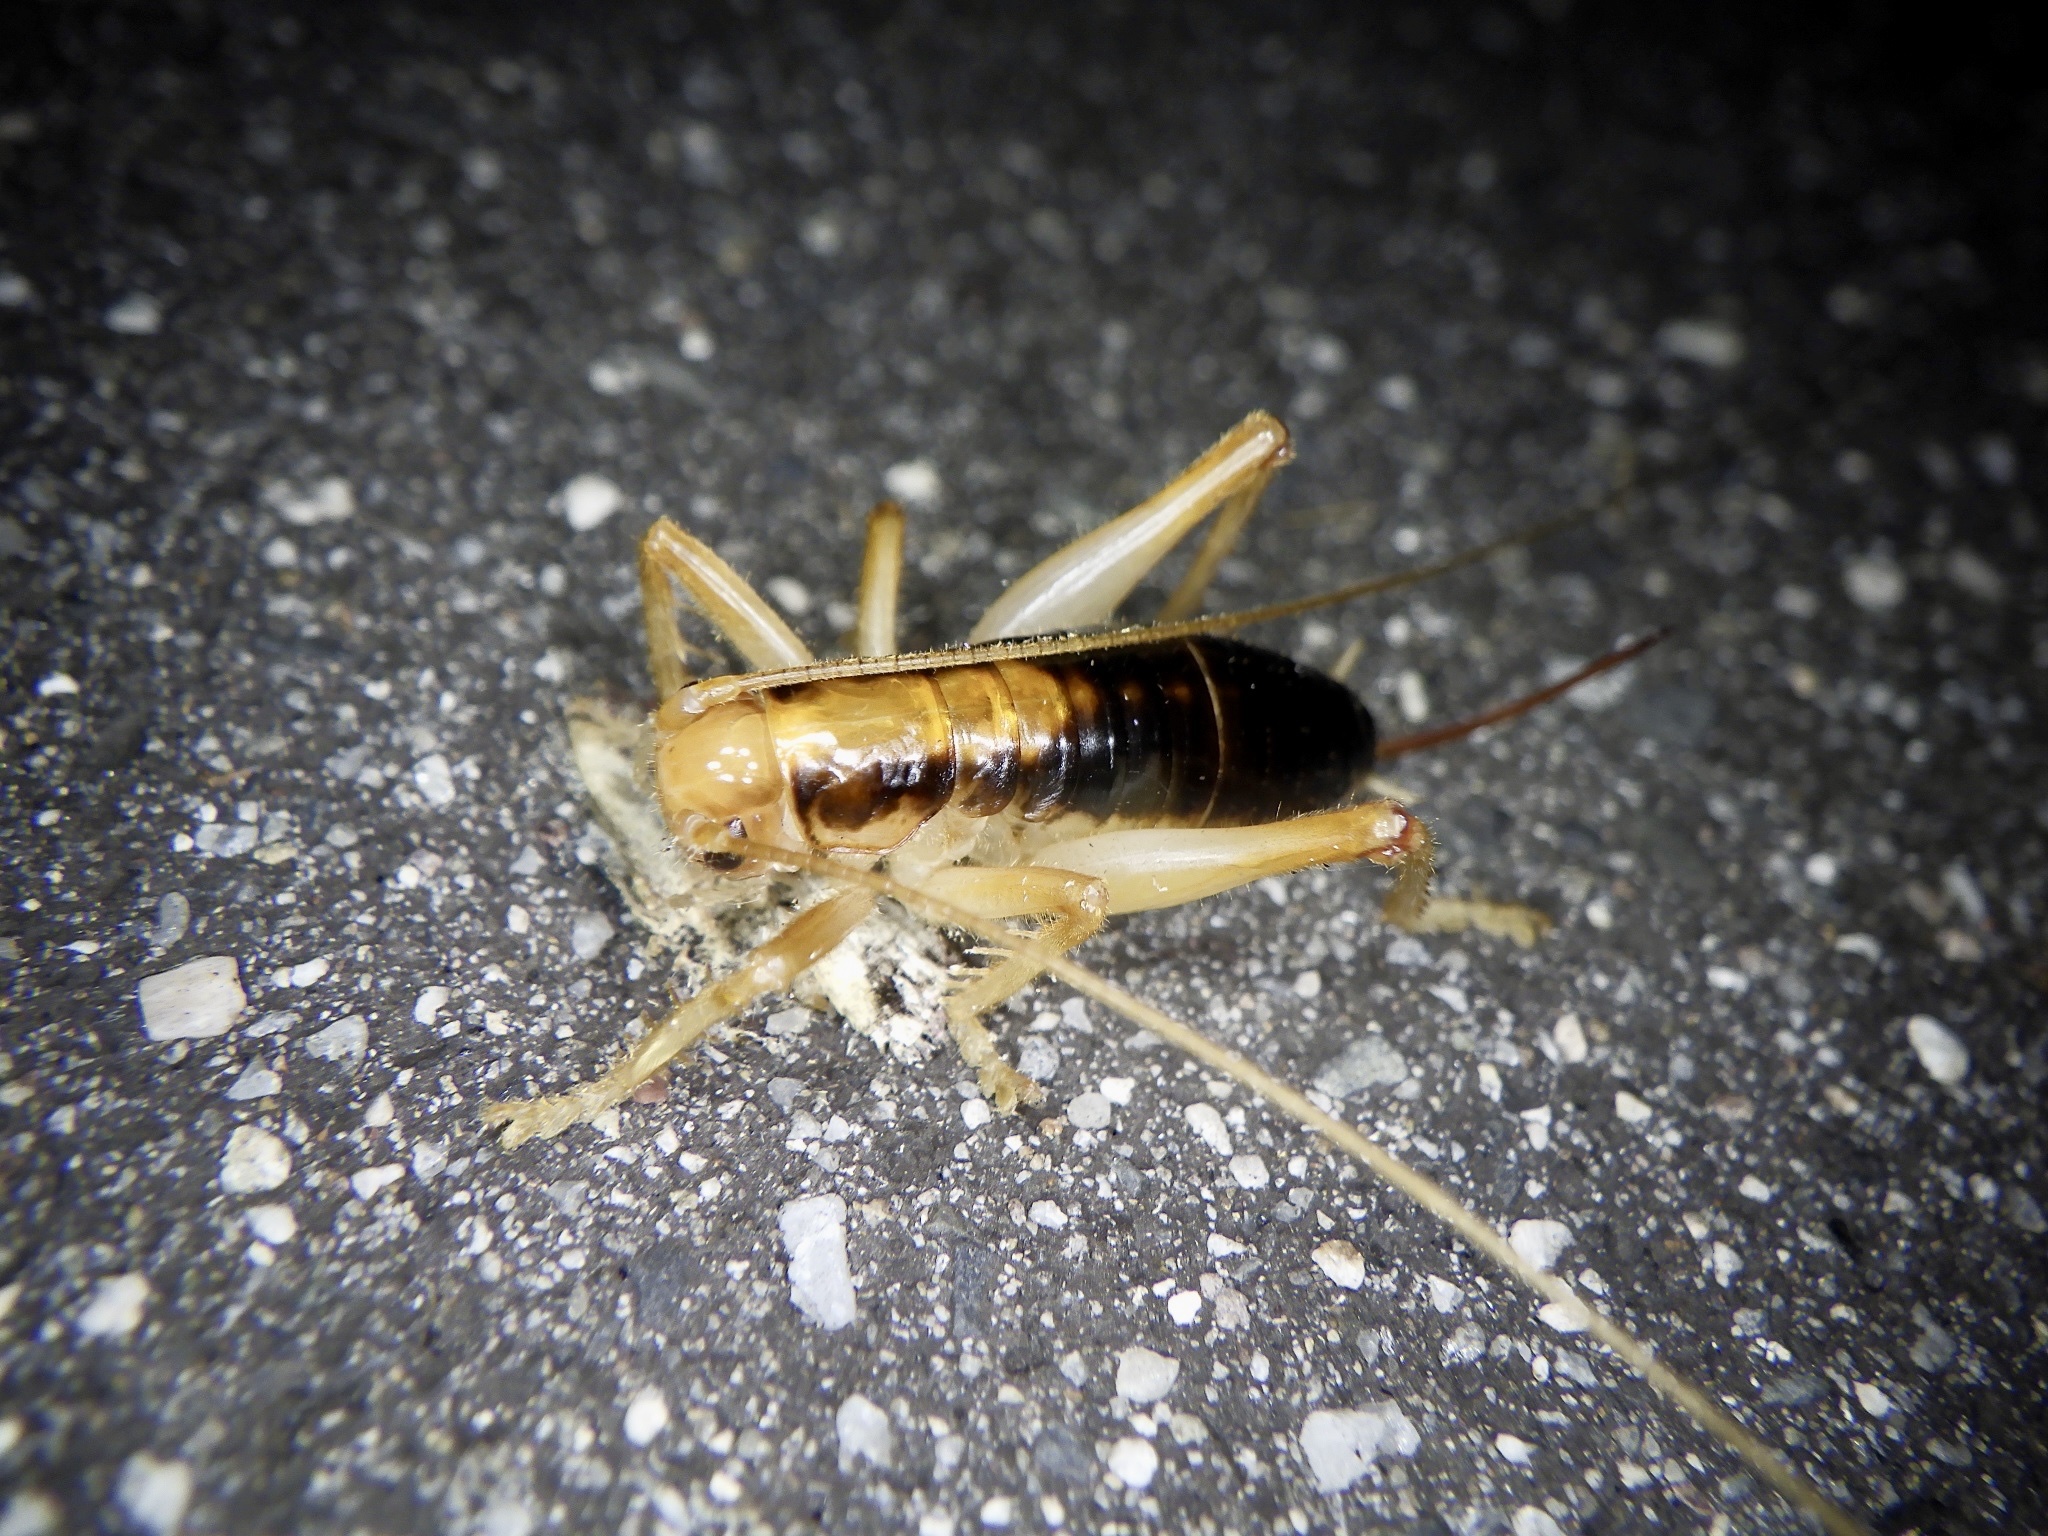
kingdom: Animalia
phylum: Arthropoda
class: Insecta
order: Orthoptera
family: Gryllacrididae
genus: Nippancistroger
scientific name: Nippancistroger testaceus
